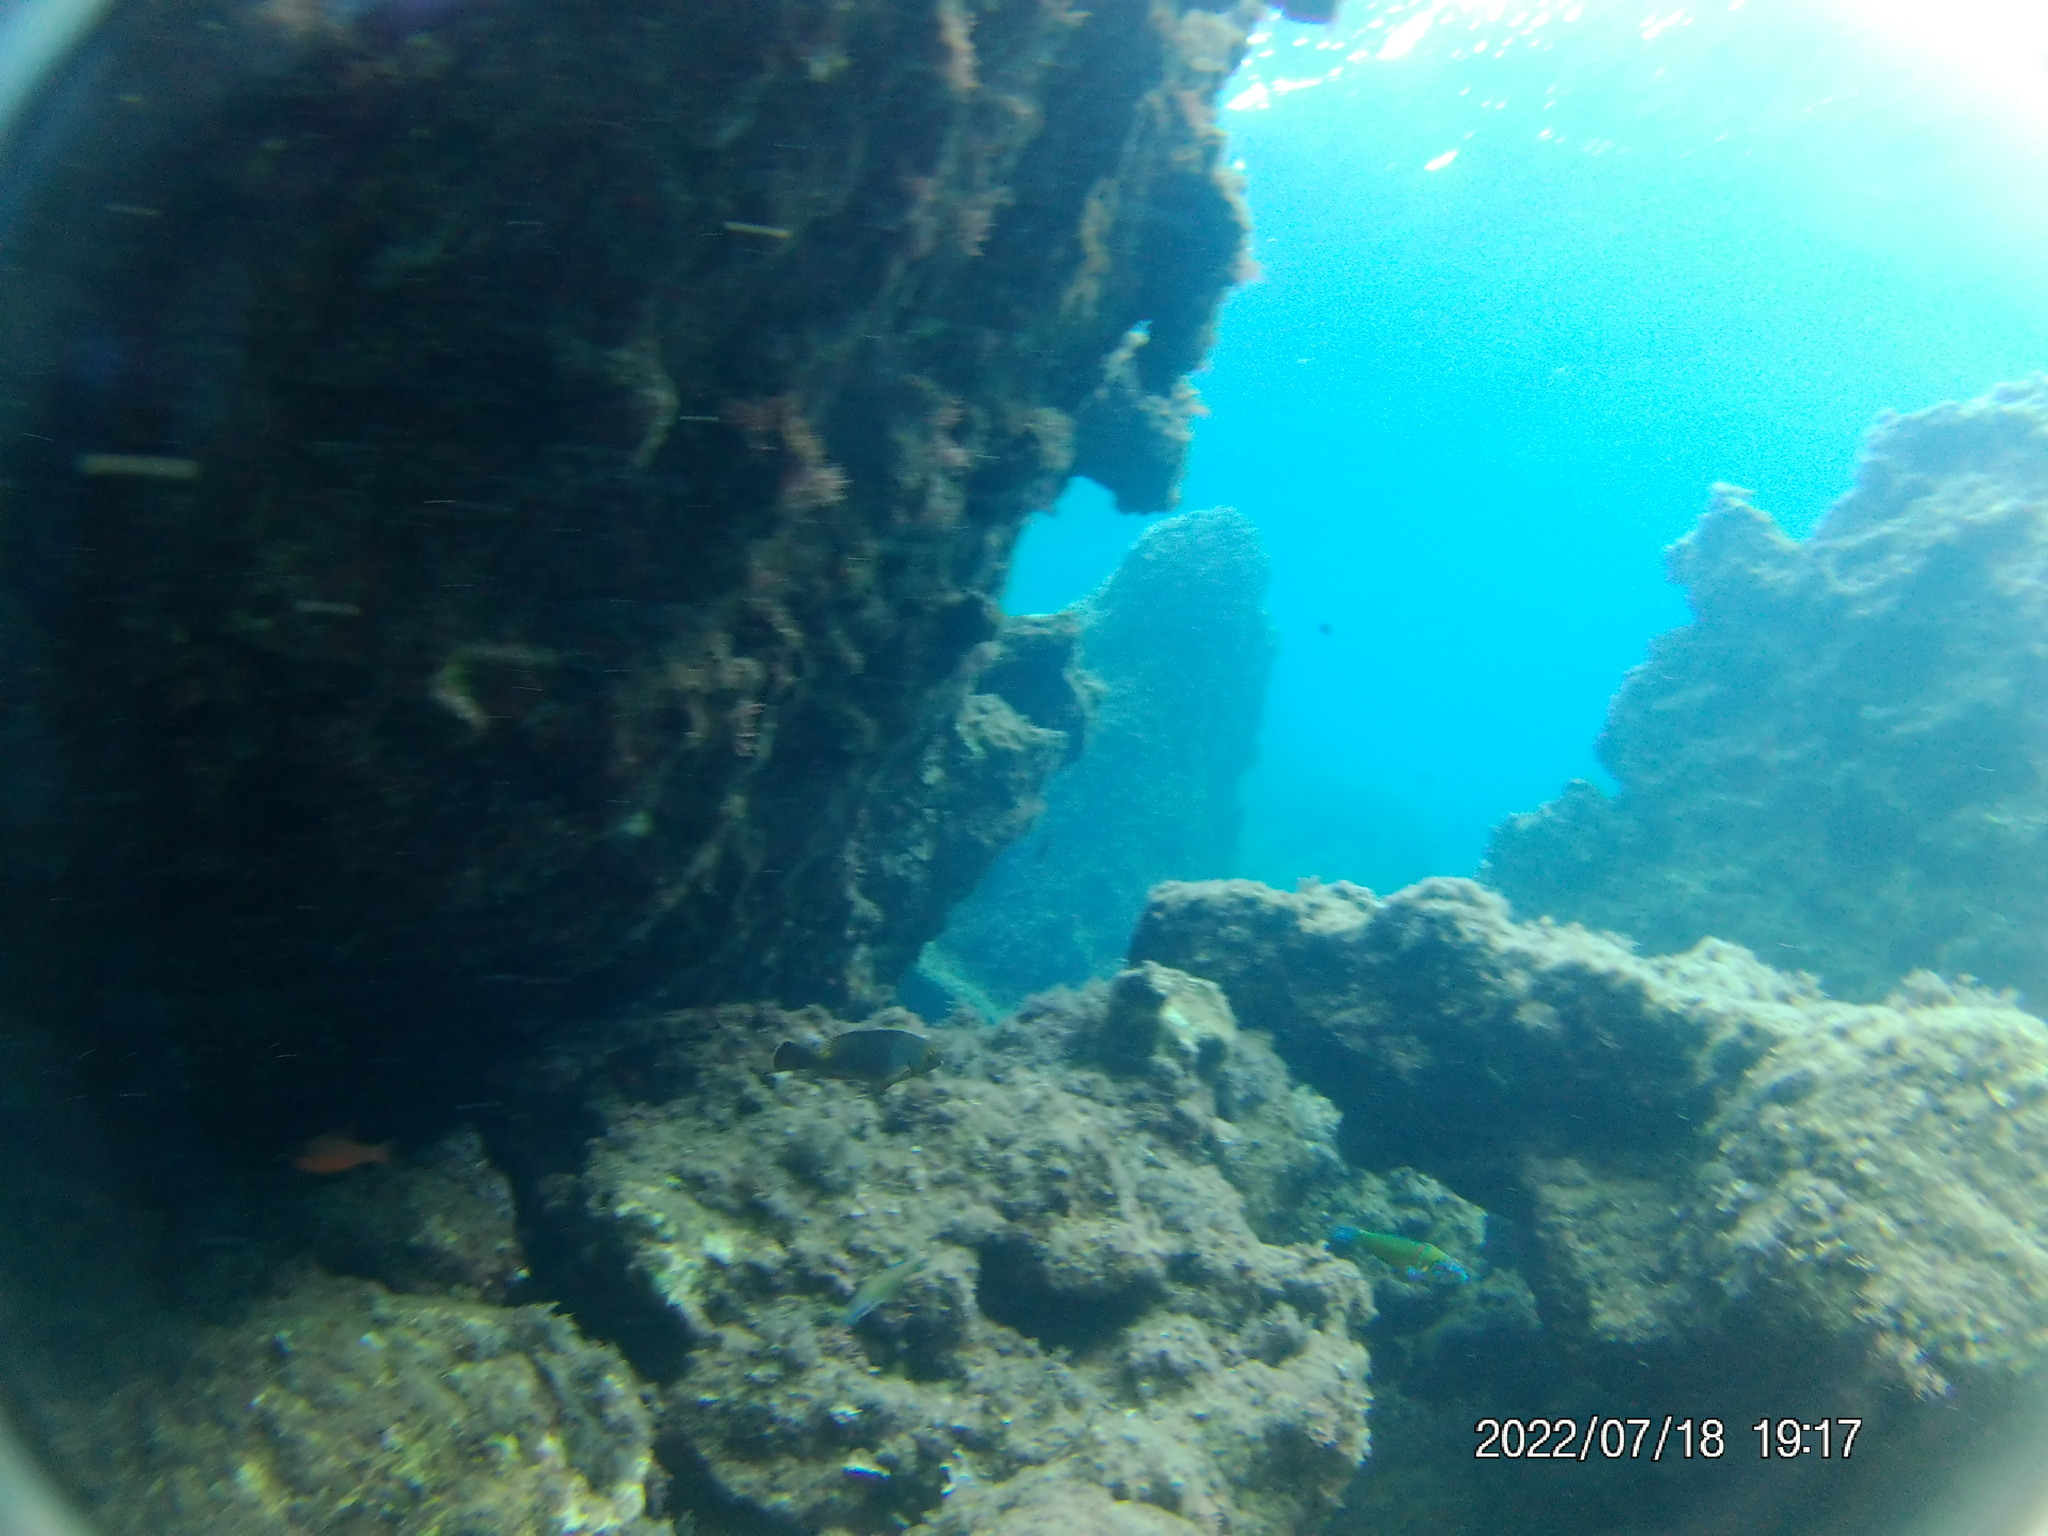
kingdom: Animalia
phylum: Chordata
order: Perciformes
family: Scaridae
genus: Sparisoma
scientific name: Sparisoma cretense
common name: Parrotfish
